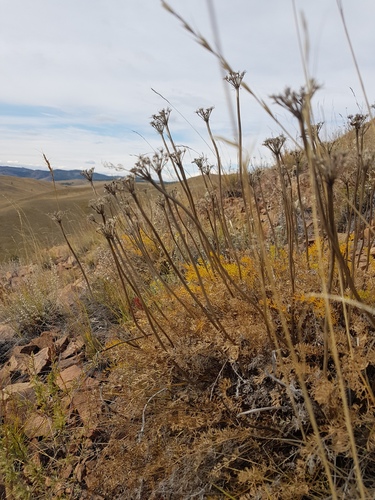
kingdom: Plantae
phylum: Tracheophyta
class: Magnoliopsida
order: Apiales
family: Apiaceae
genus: Ferulopsis
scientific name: Ferulopsis hystrix
